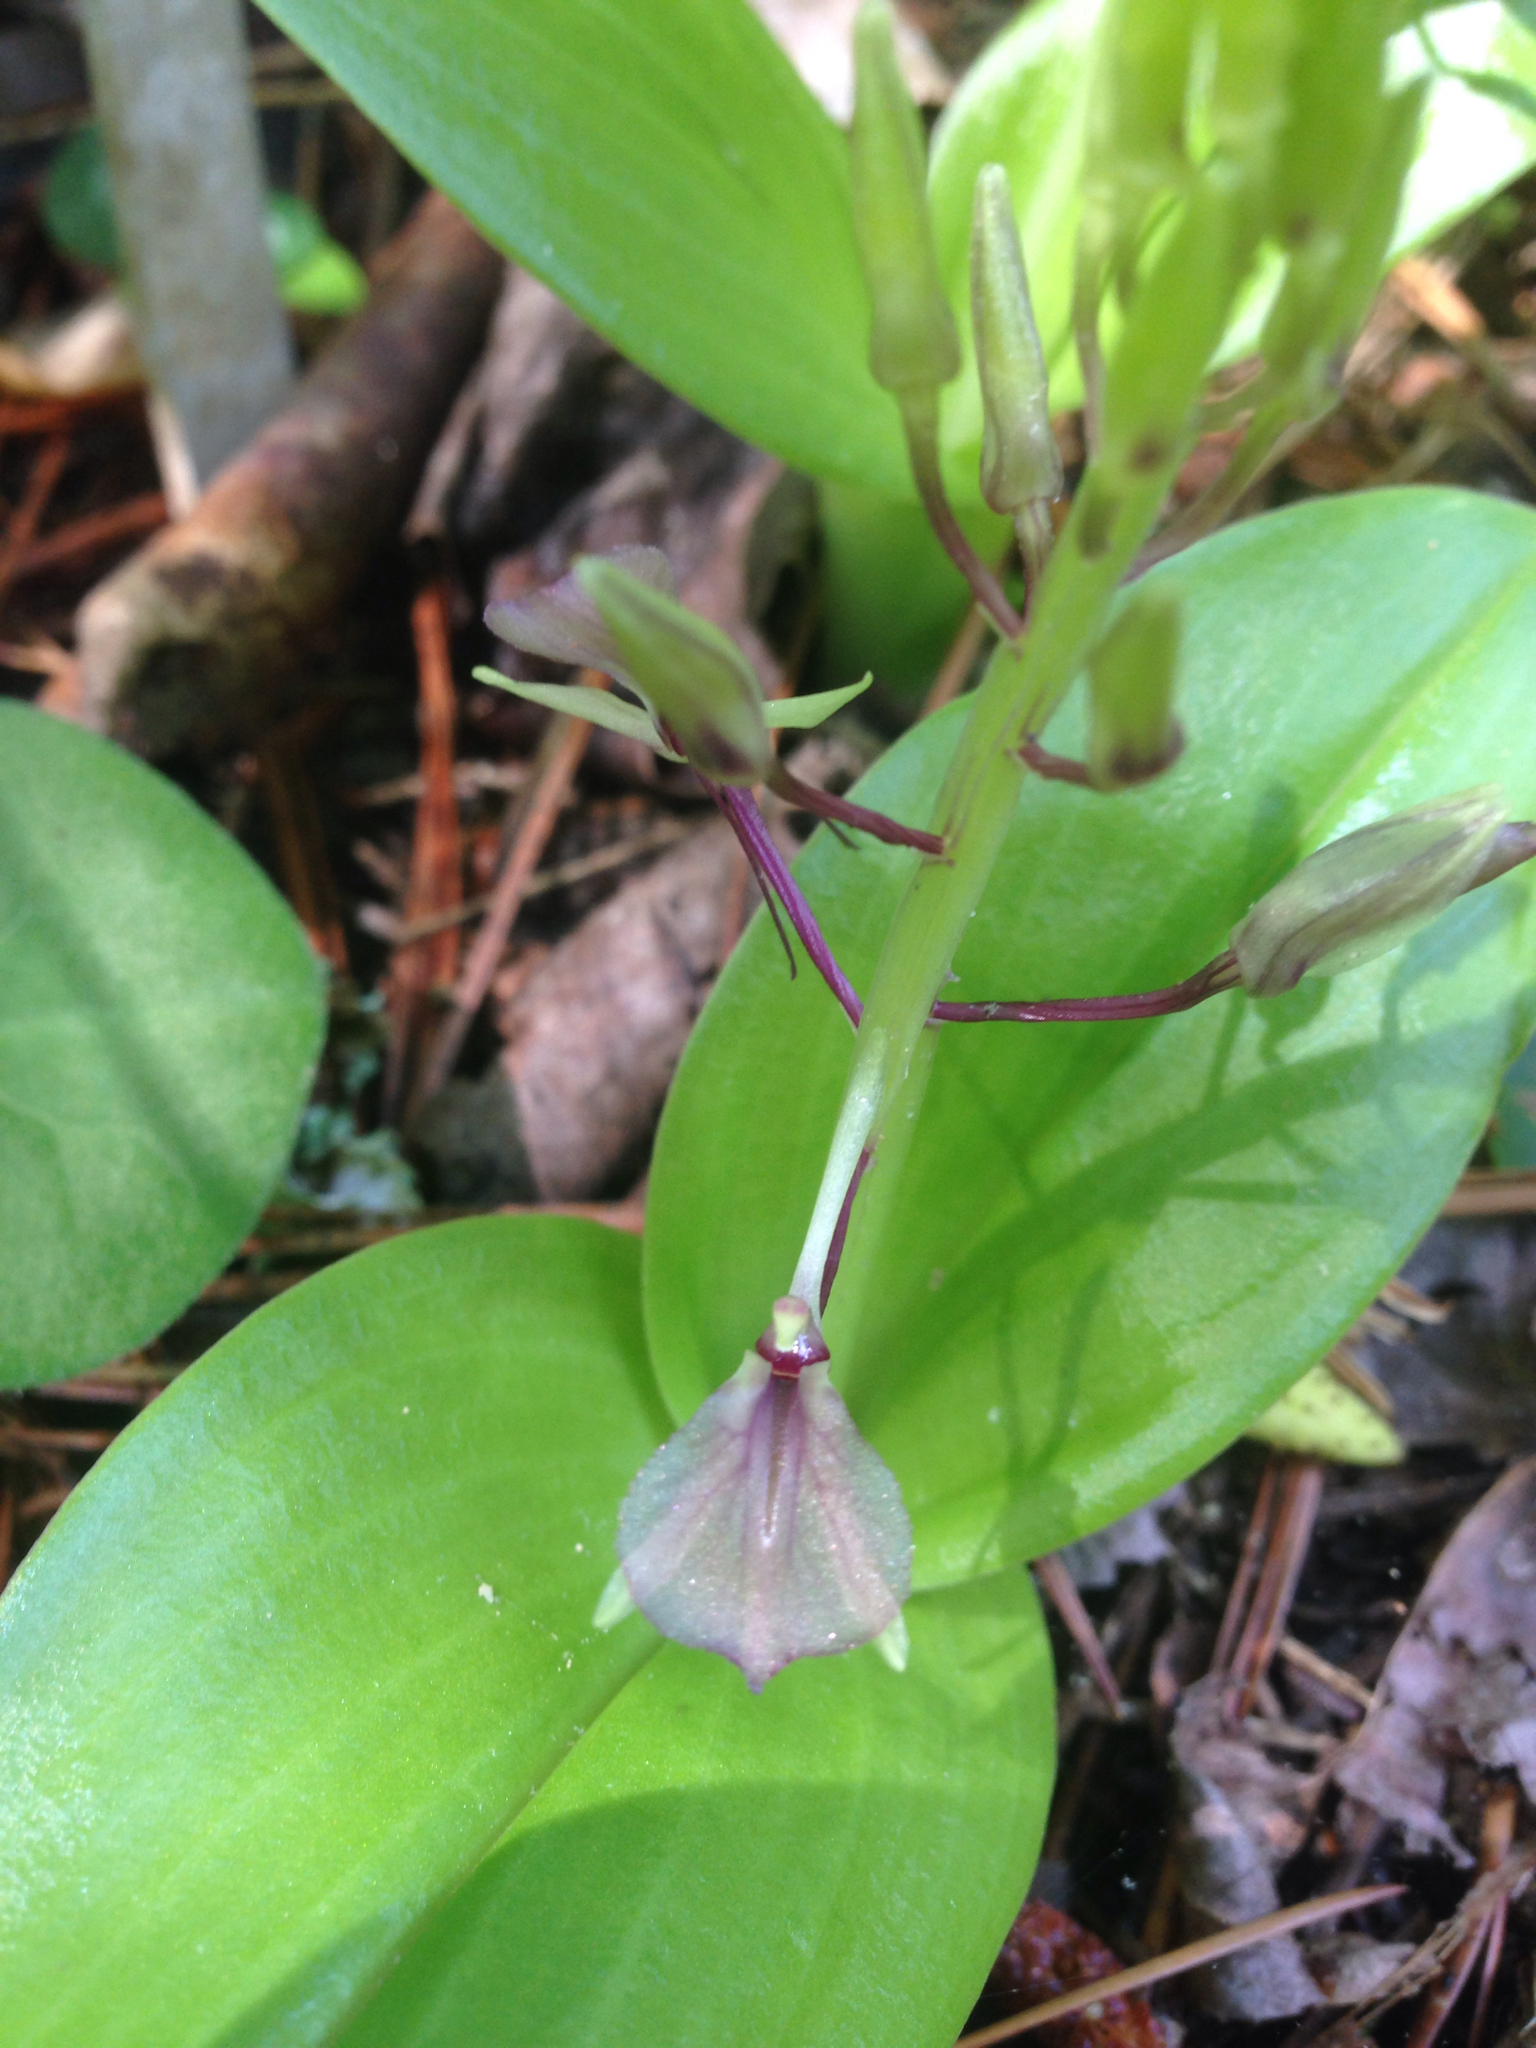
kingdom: Plantae
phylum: Tracheophyta
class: Liliopsida
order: Asparagales
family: Orchidaceae
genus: Liparis
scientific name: Liparis liliifolia
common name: Brown wide-lip orchid
